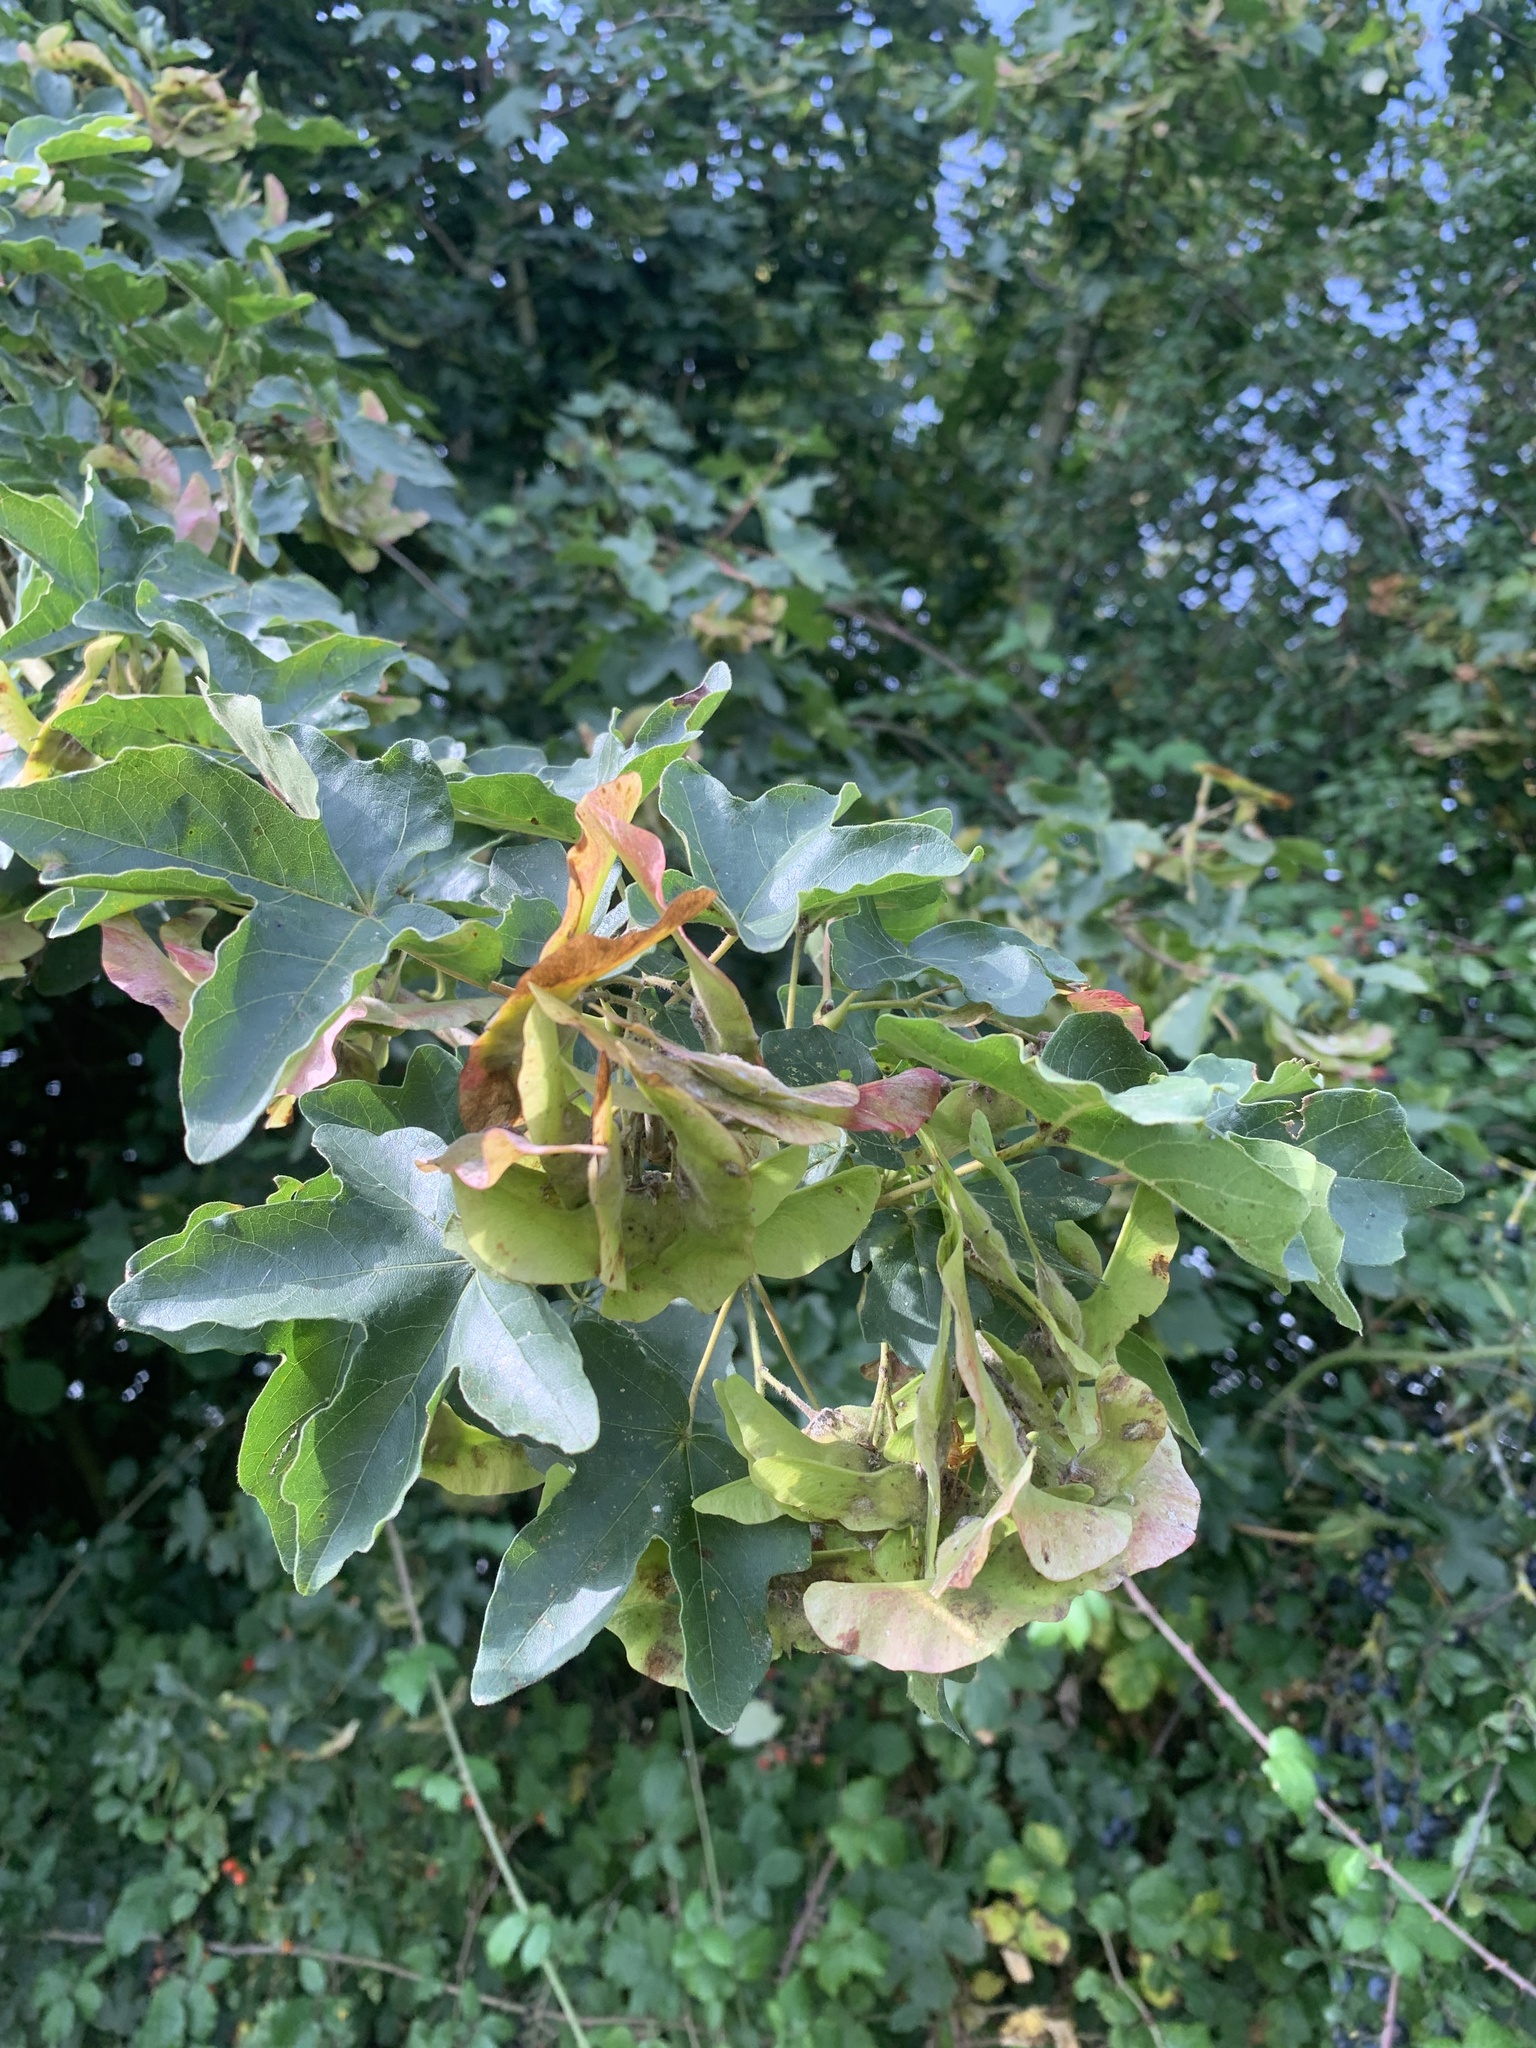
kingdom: Plantae
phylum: Tracheophyta
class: Magnoliopsida
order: Sapindales
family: Sapindaceae
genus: Acer
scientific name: Acer campestre
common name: Field maple
